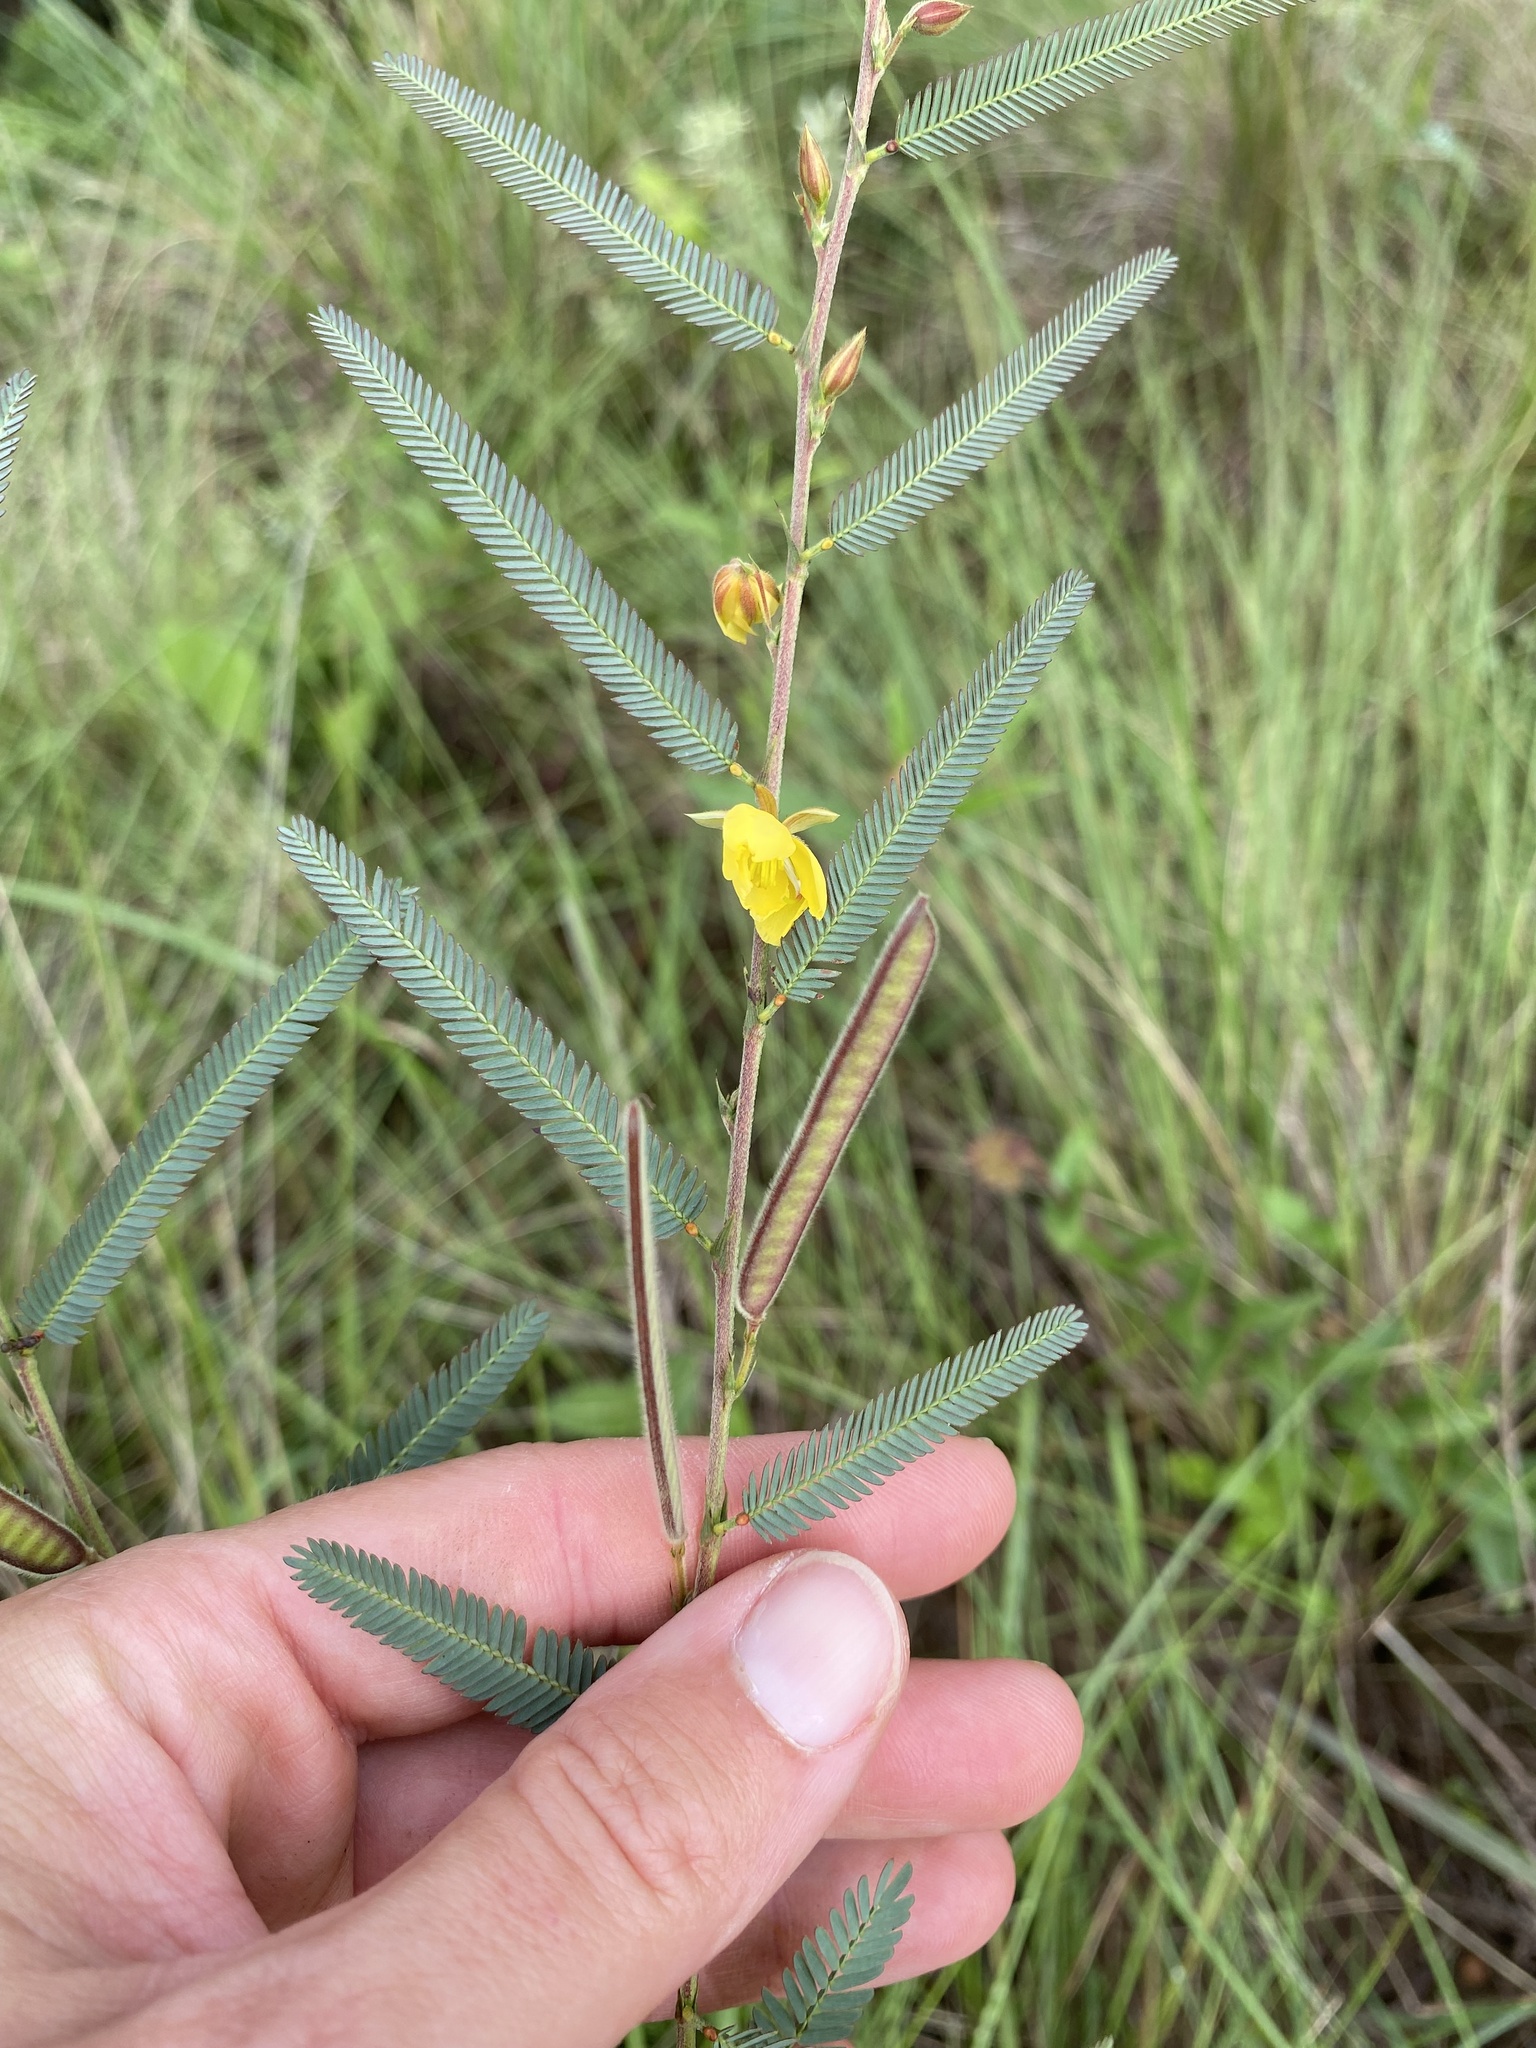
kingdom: Plantae
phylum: Tracheophyta
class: Magnoliopsida
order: Fabales
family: Fabaceae
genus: Chamaecrista
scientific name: Chamaecrista mimosoides
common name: Fish-bone cassia
